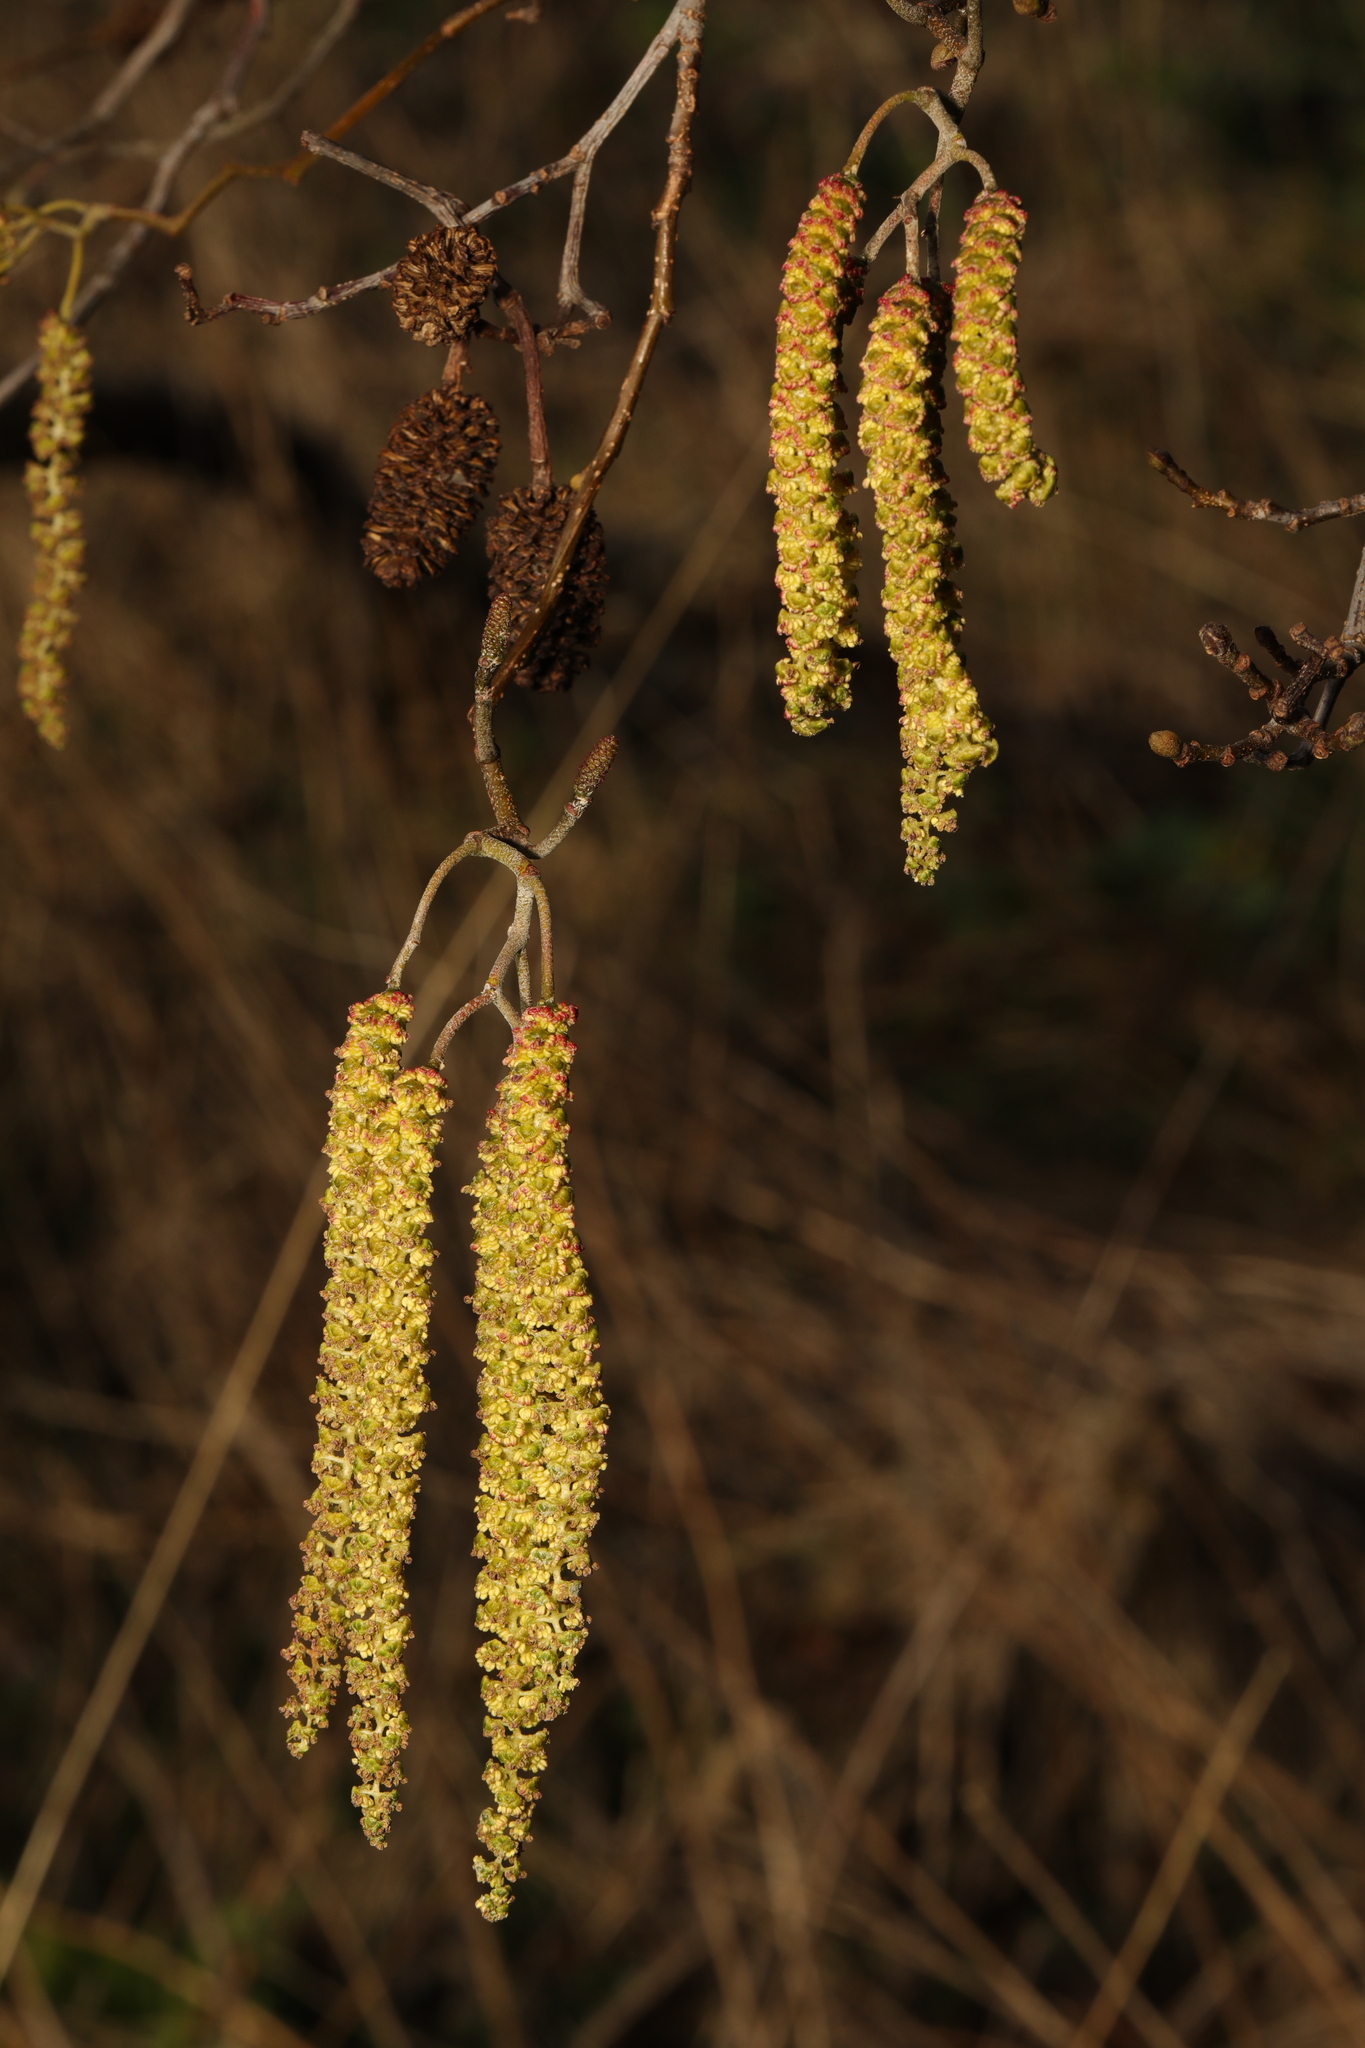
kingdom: Plantae
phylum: Tracheophyta
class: Magnoliopsida
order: Fagales
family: Betulaceae
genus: Alnus
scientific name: Alnus glutinosa
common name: Black alder
